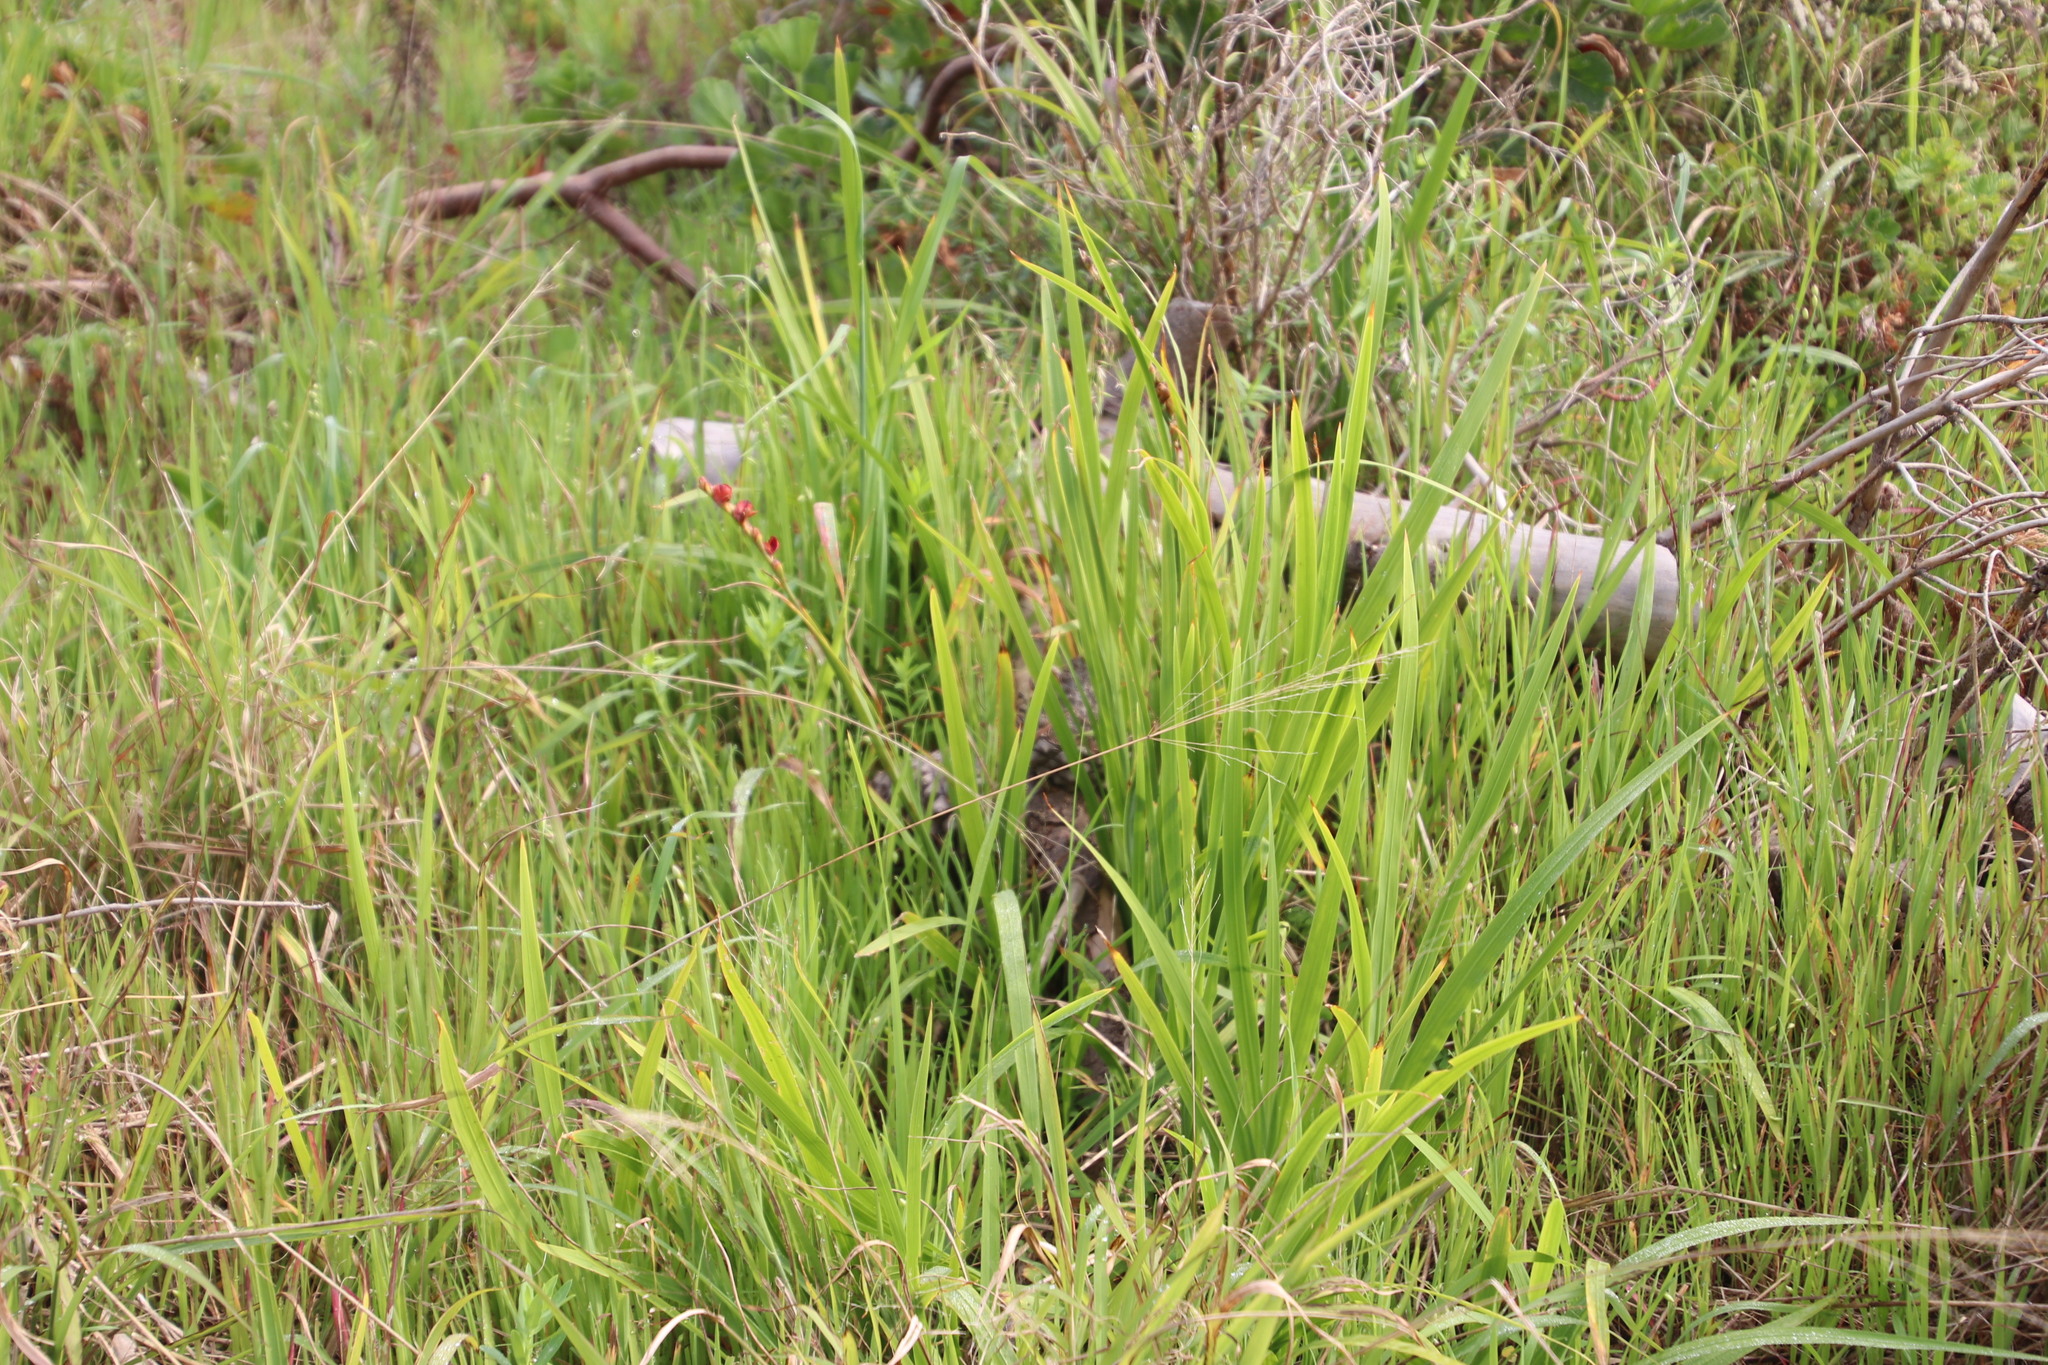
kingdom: Plantae
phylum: Tracheophyta
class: Liliopsida
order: Asparagales
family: Iridaceae
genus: Chasmanthe
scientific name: Chasmanthe aethiopica
